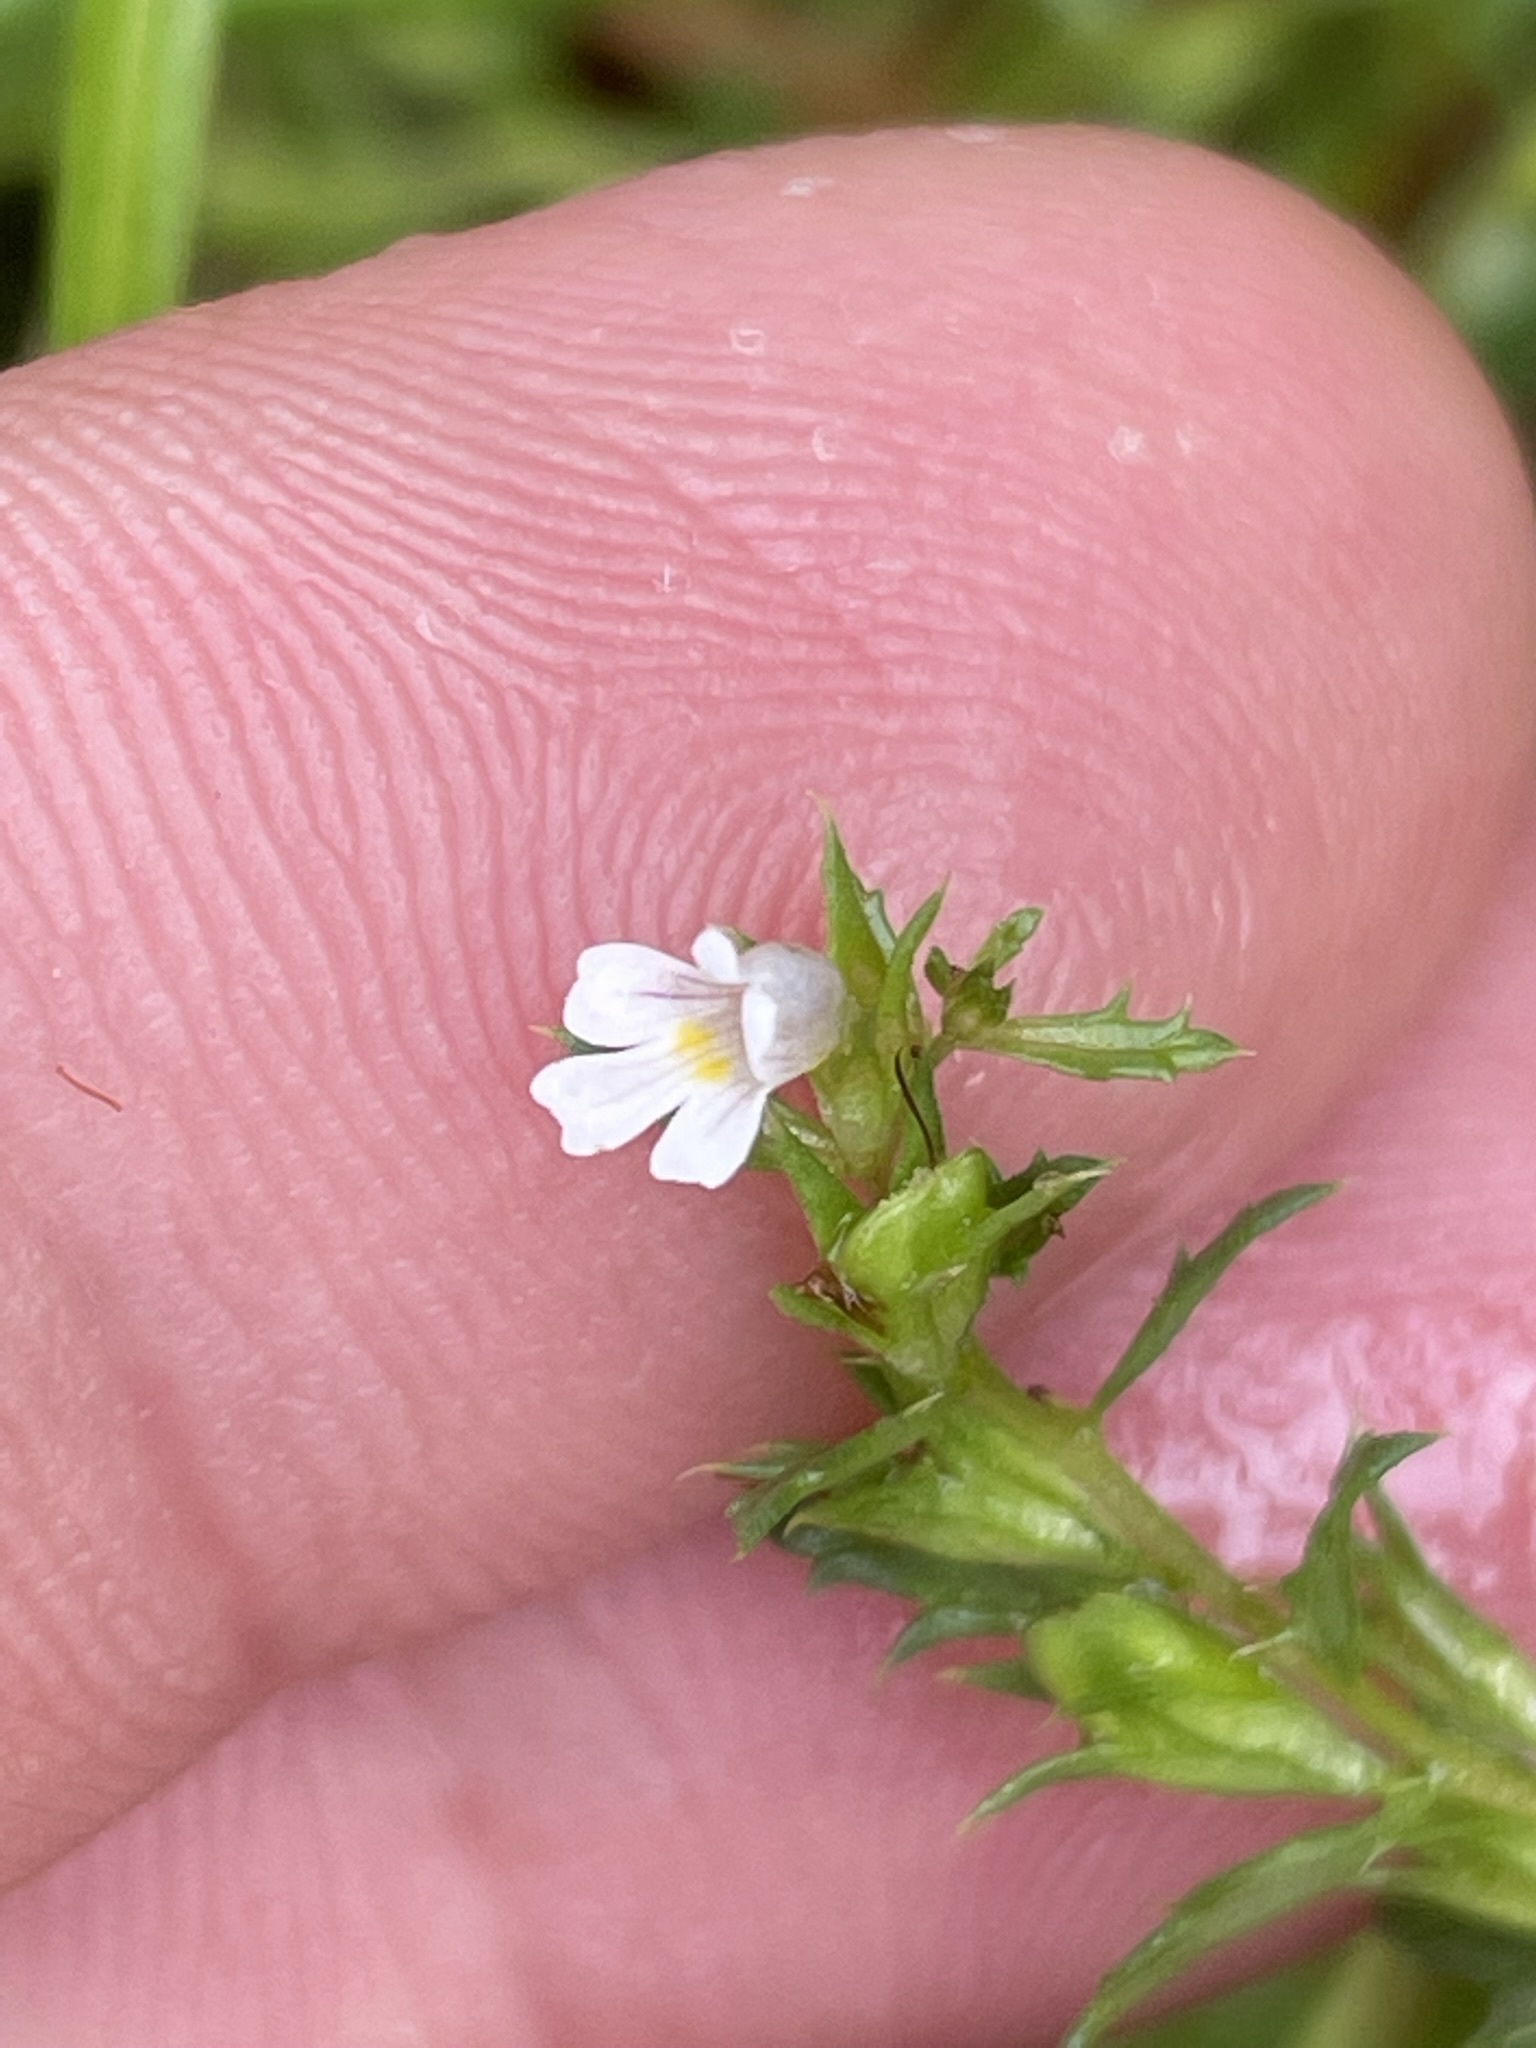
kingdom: Plantae
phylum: Tracheophyta
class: Magnoliopsida
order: Lamiales
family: Orobanchaceae
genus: Euphrasia
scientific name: Euphrasia salisburgensis
